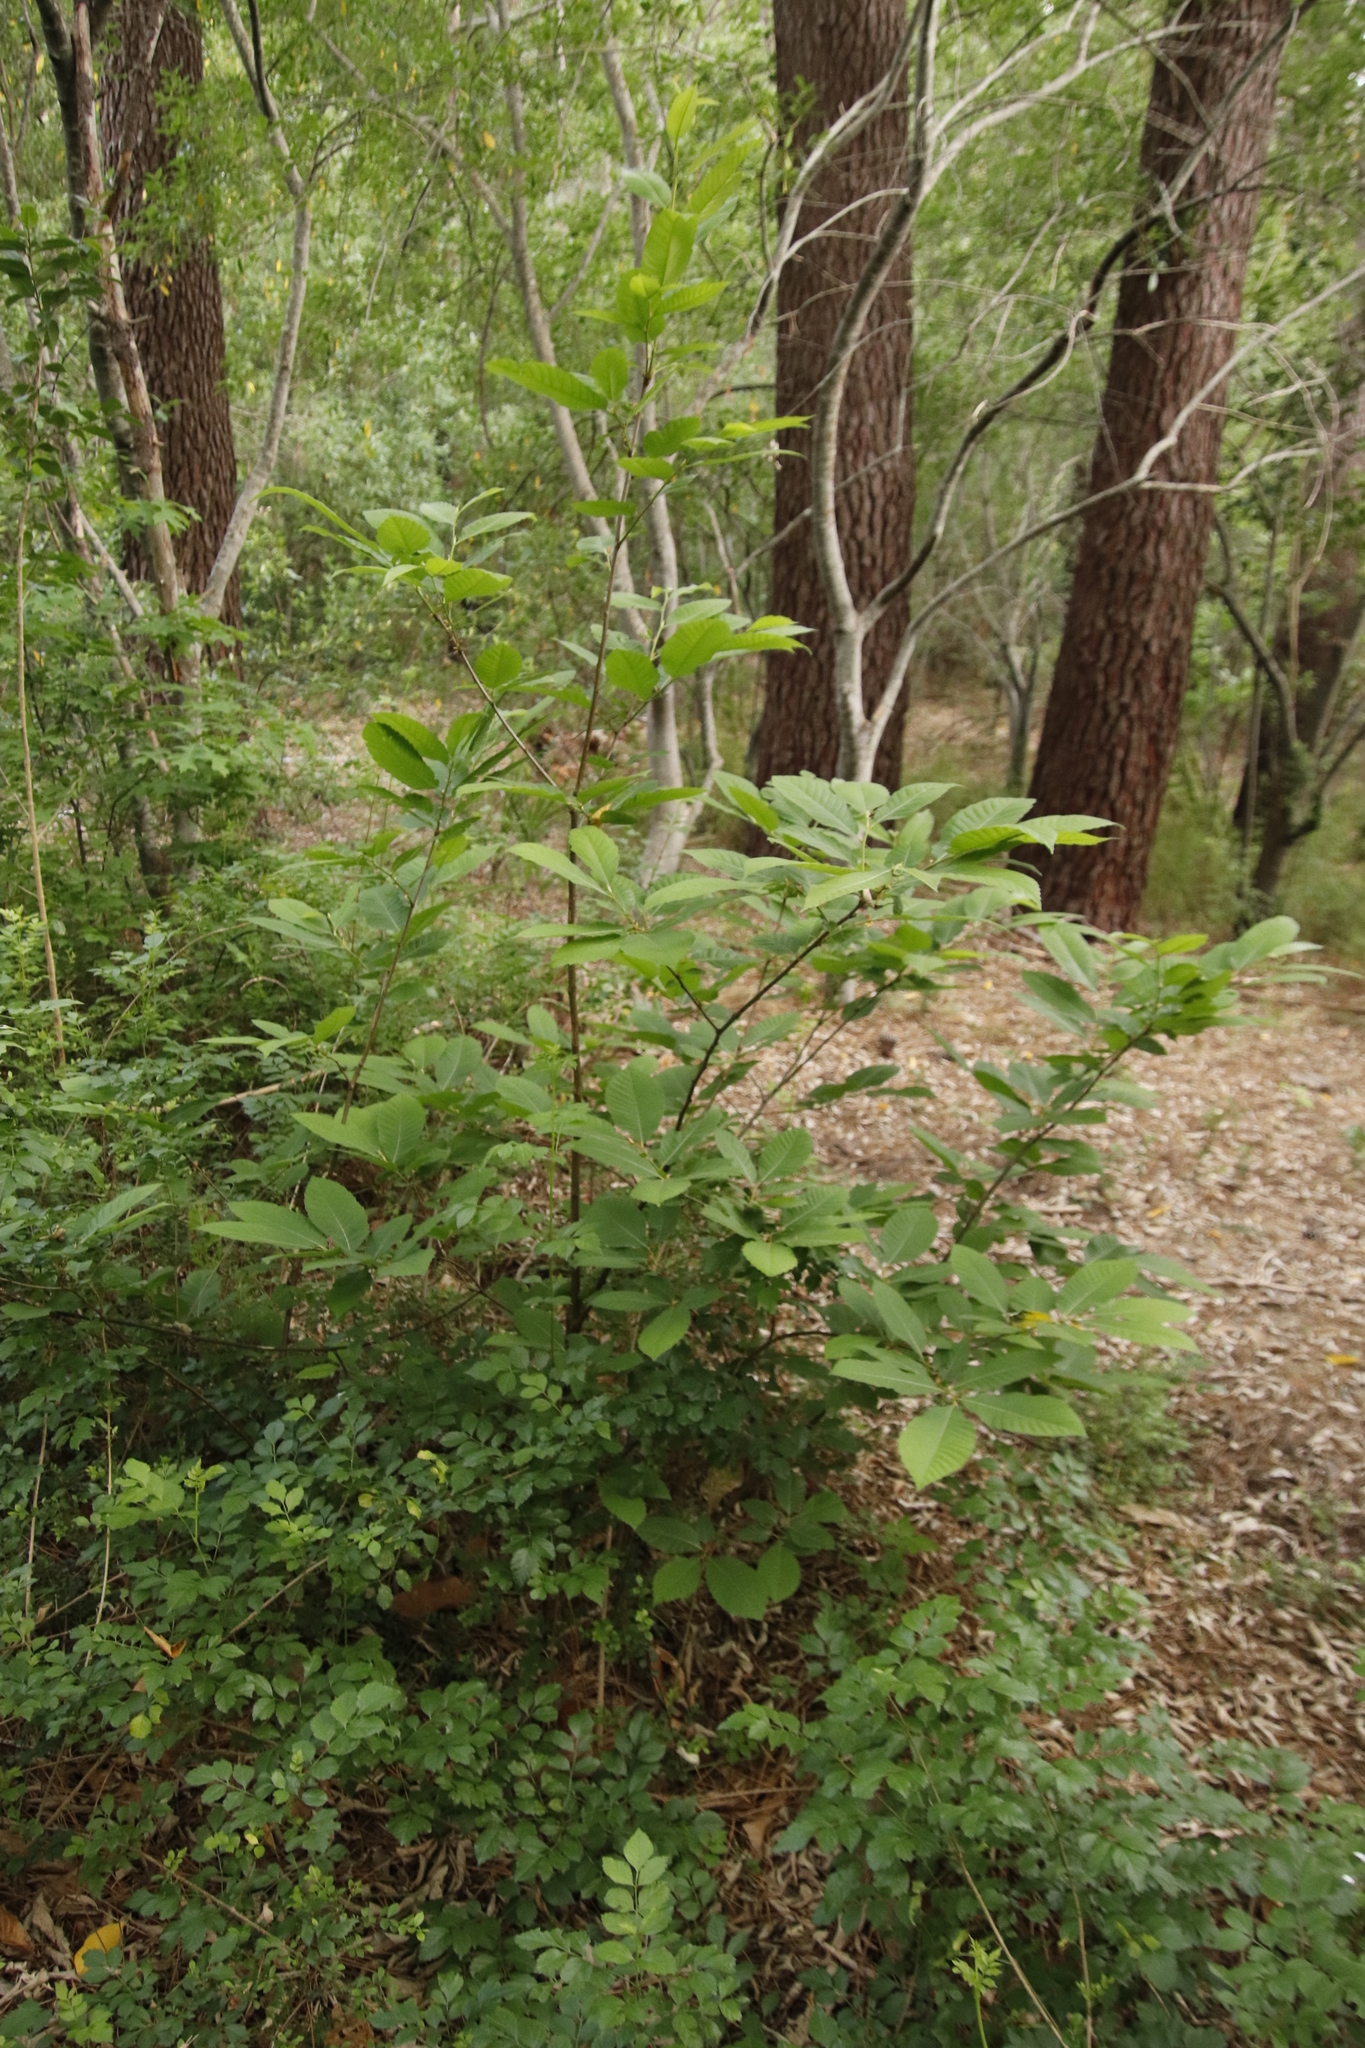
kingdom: Plantae
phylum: Tracheophyta
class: Magnoliopsida
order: Fagales
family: Fagaceae
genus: Castanea
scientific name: Castanea sativa
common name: Sweet chestnut
